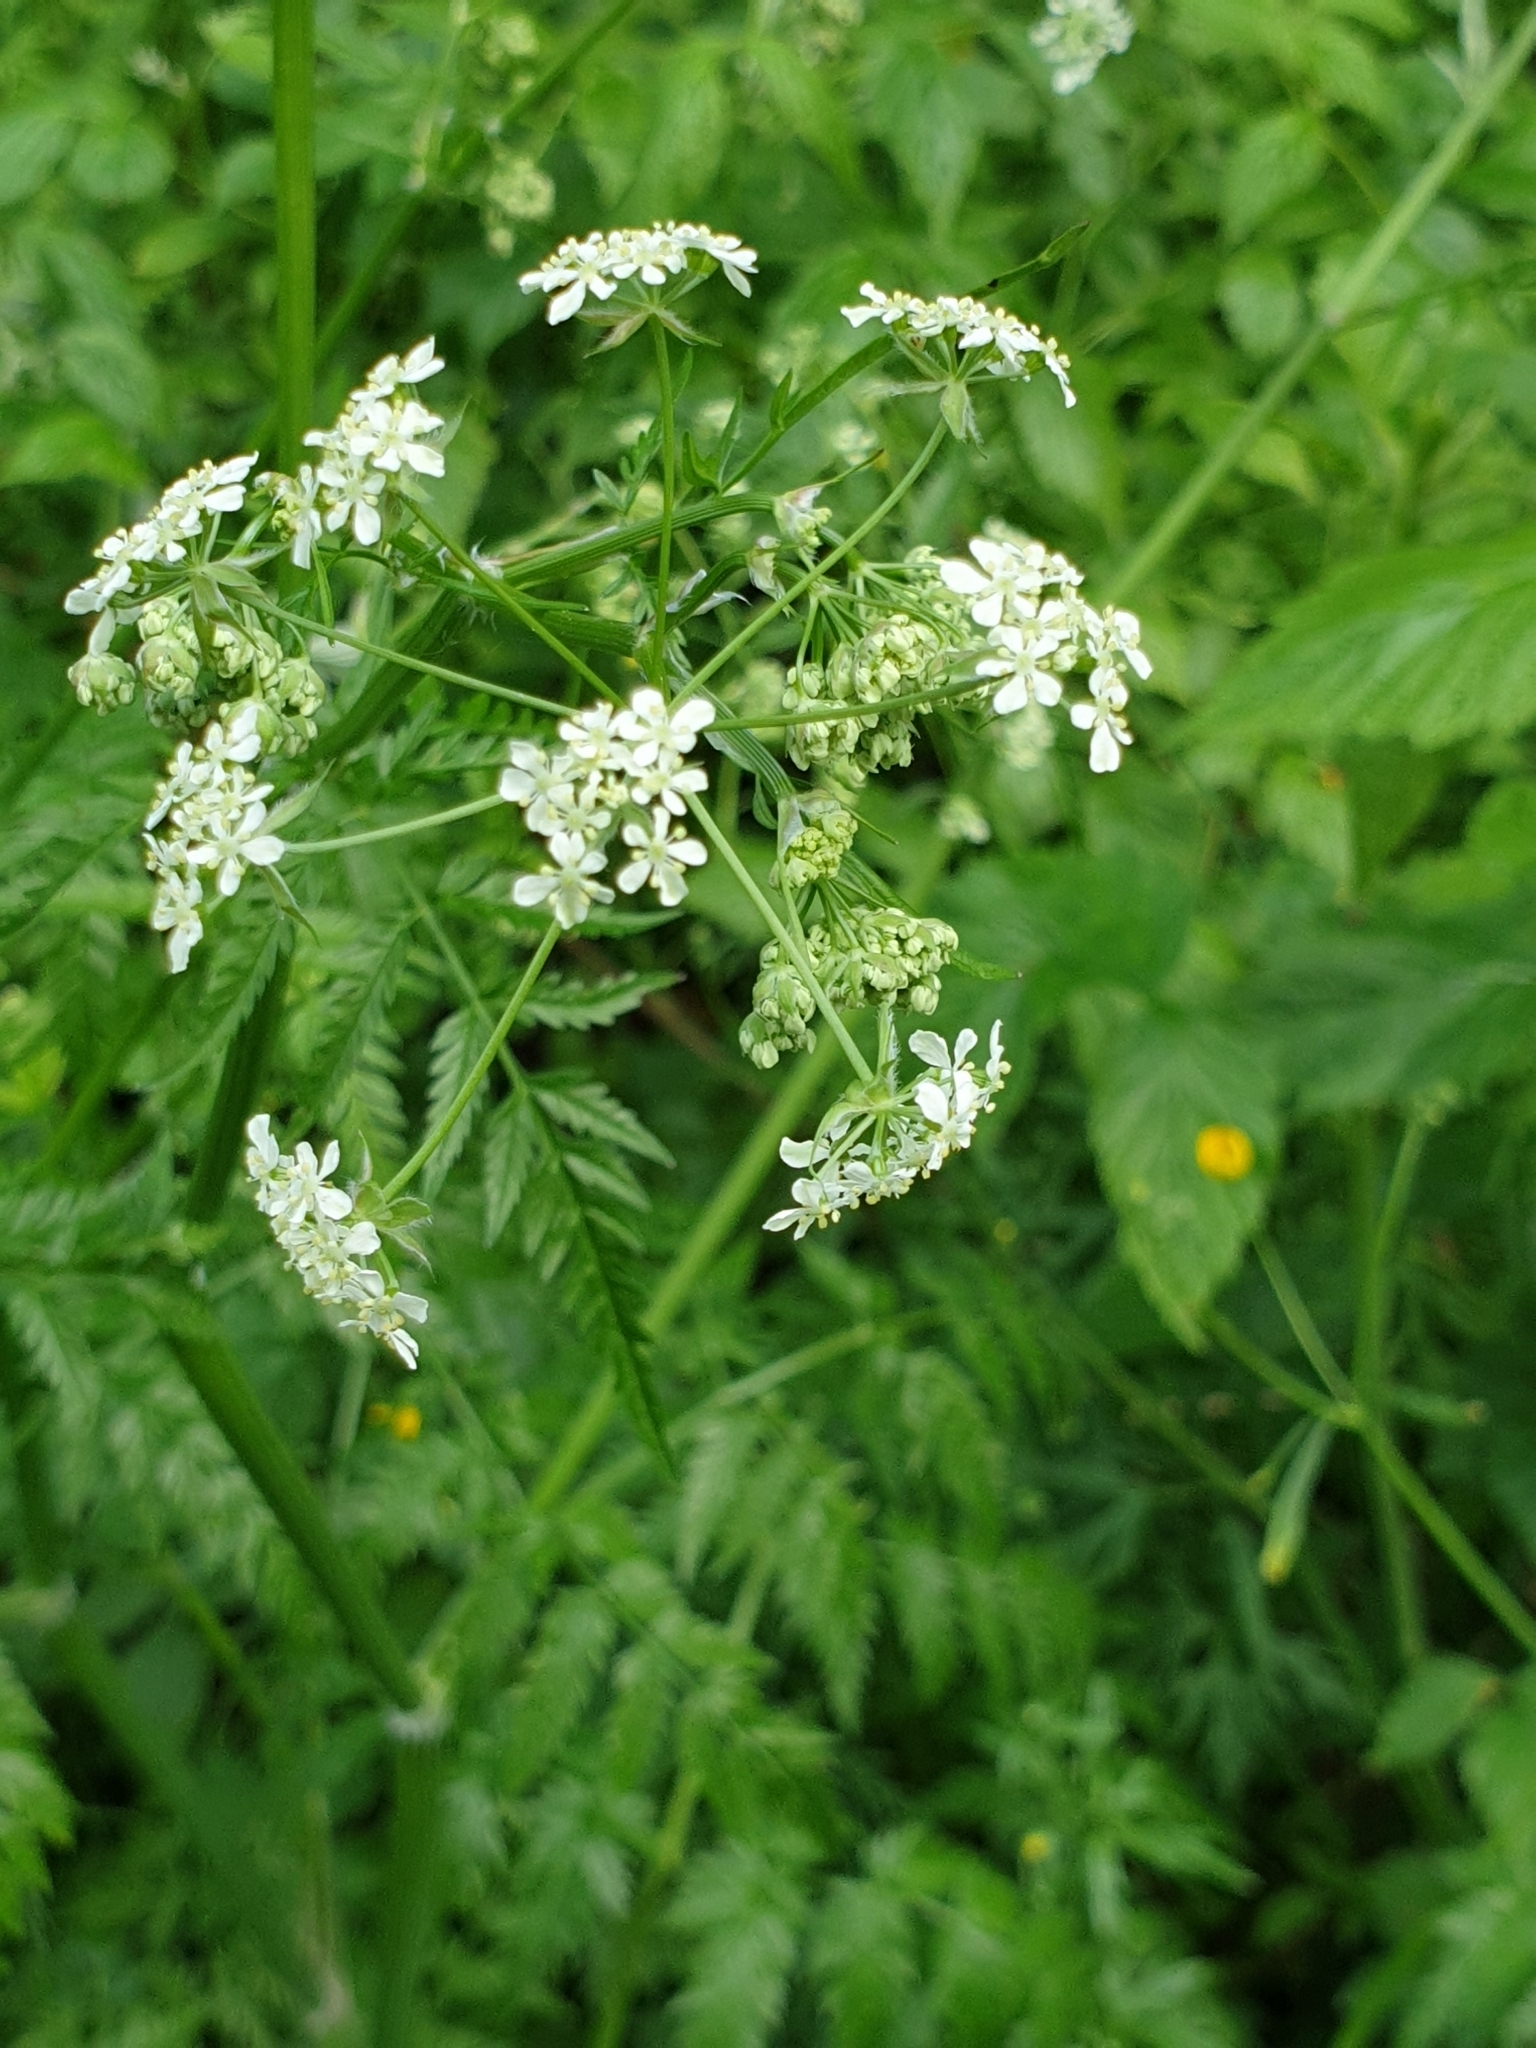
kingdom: Plantae
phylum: Tracheophyta
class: Magnoliopsida
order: Apiales
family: Apiaceae
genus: Anthriscus
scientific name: Anthriscus sylvestris
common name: Cow parsley
